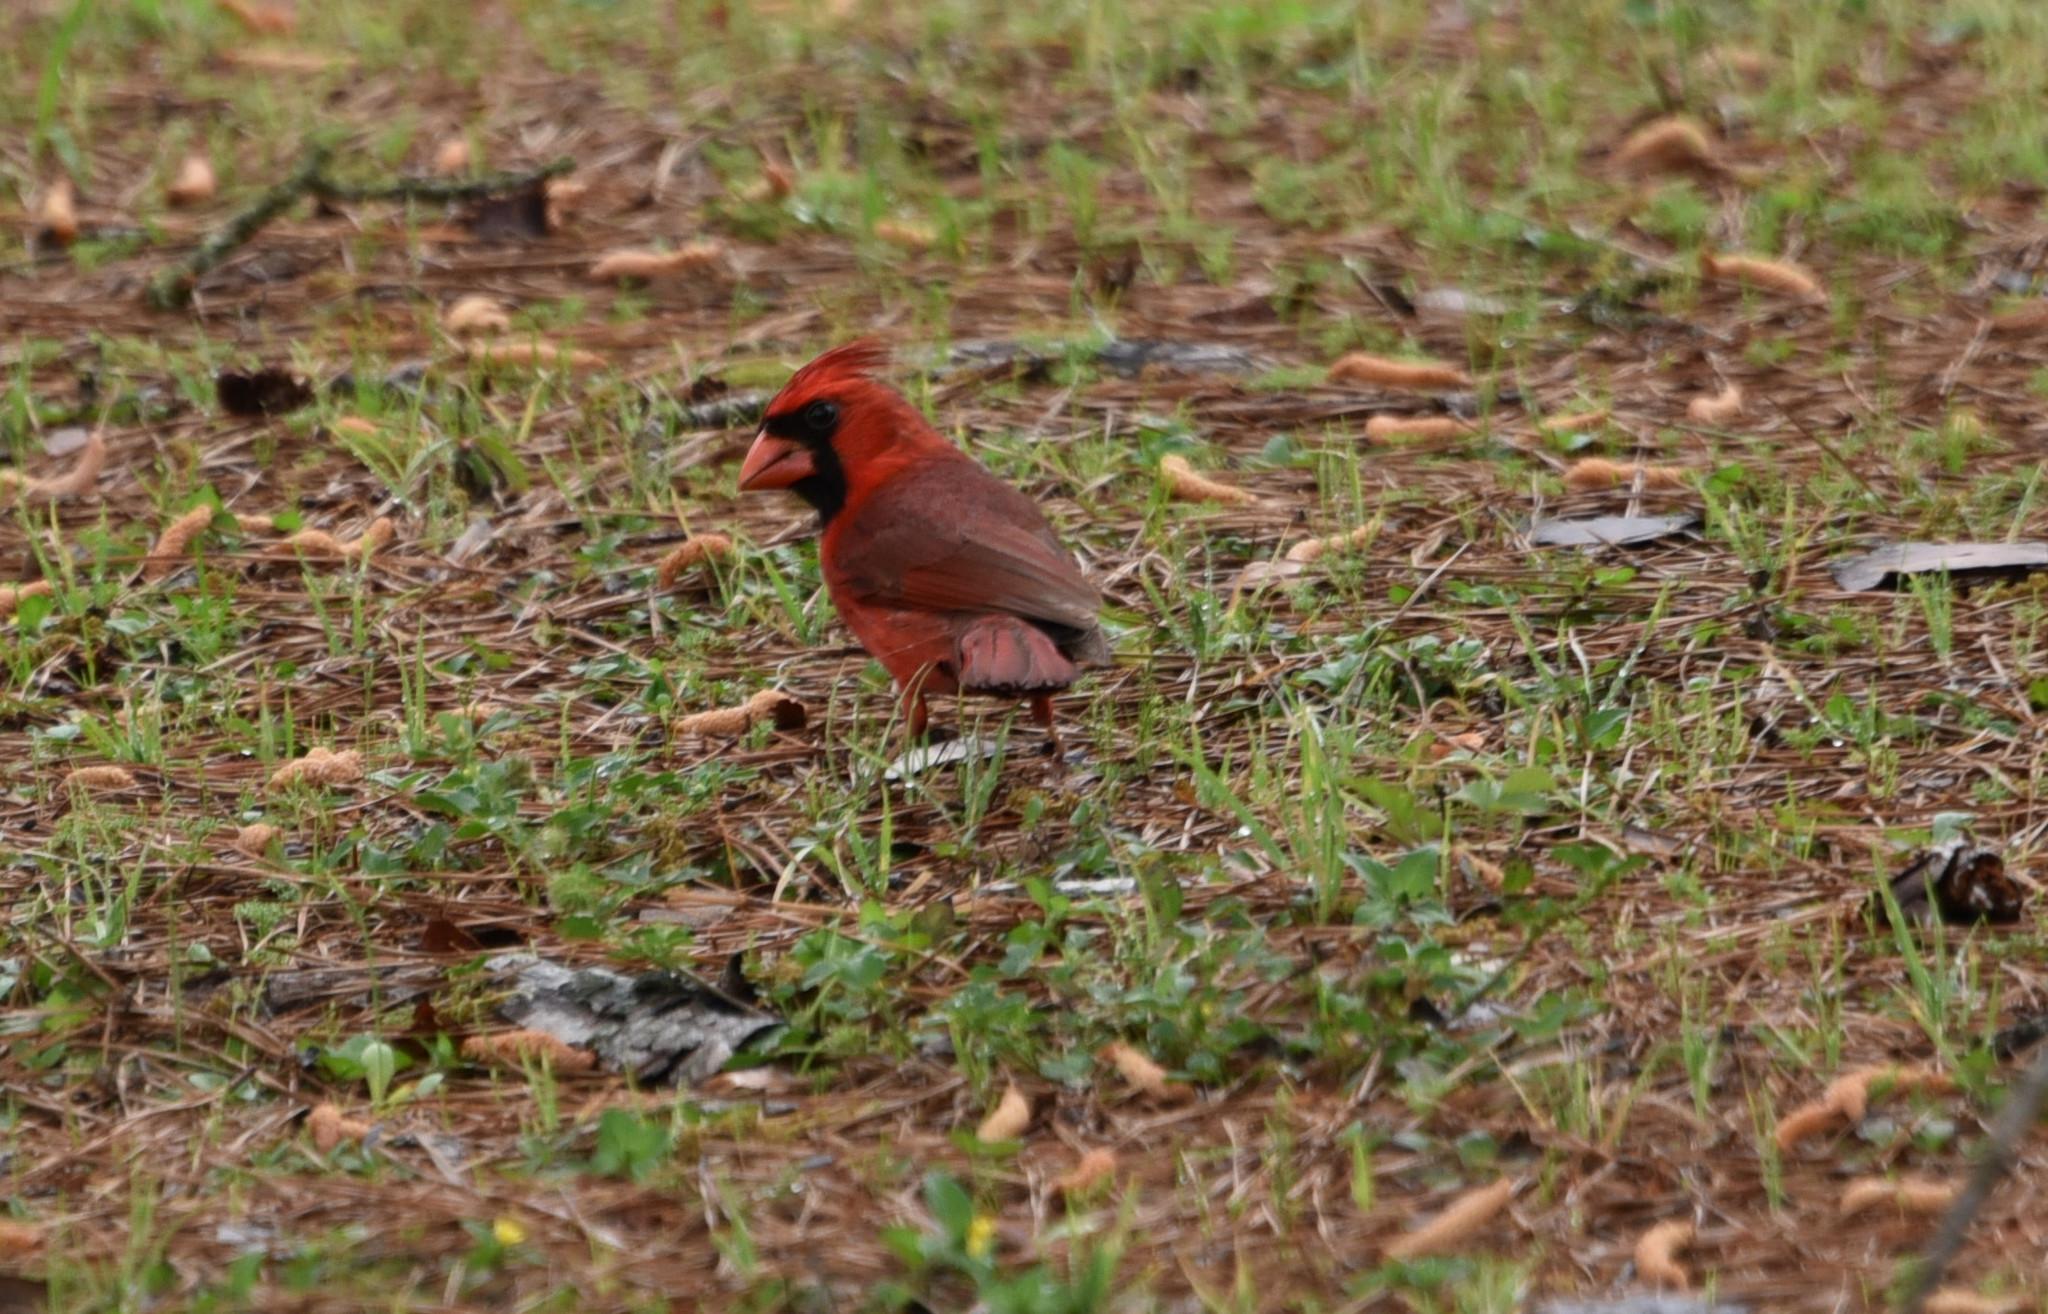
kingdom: Animalia
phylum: Chordata
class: Aves
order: Passeriformes
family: Cardinalidae
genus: Cardinalis
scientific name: Cardinalis cardinalis
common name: Northern cardinal
